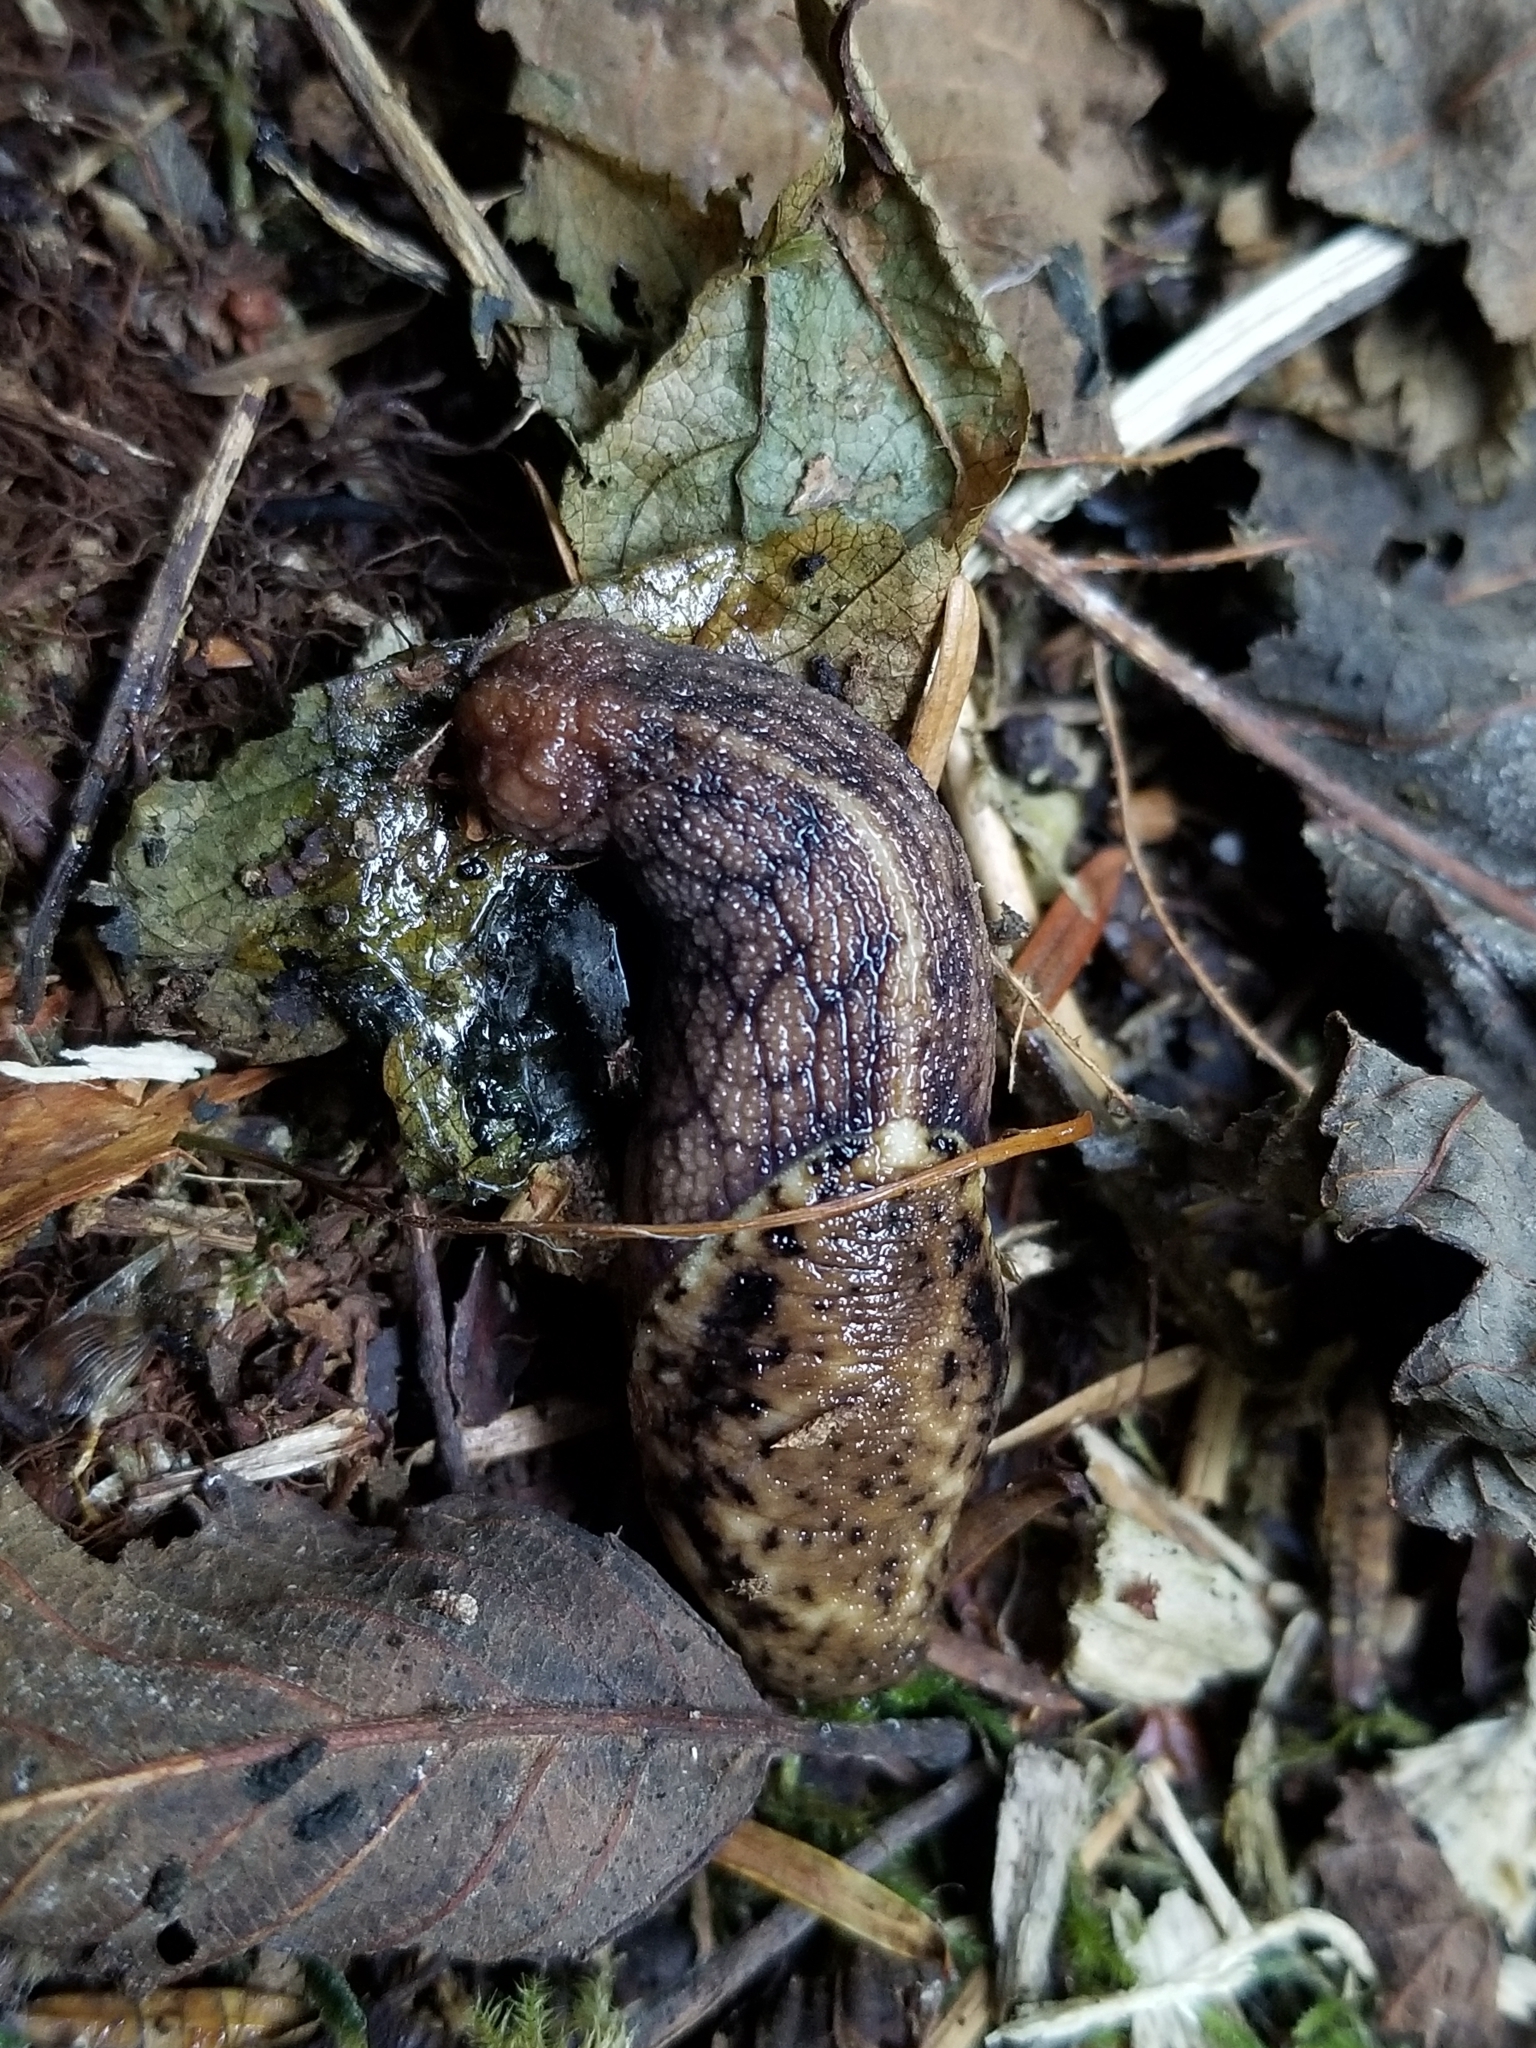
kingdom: Animalia
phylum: Mollusca
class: Gastropoda
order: Stylommatophora
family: Ariolimacidae
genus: Prophysaon
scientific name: Prophysaon andersonii
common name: Reticulate taildropper
